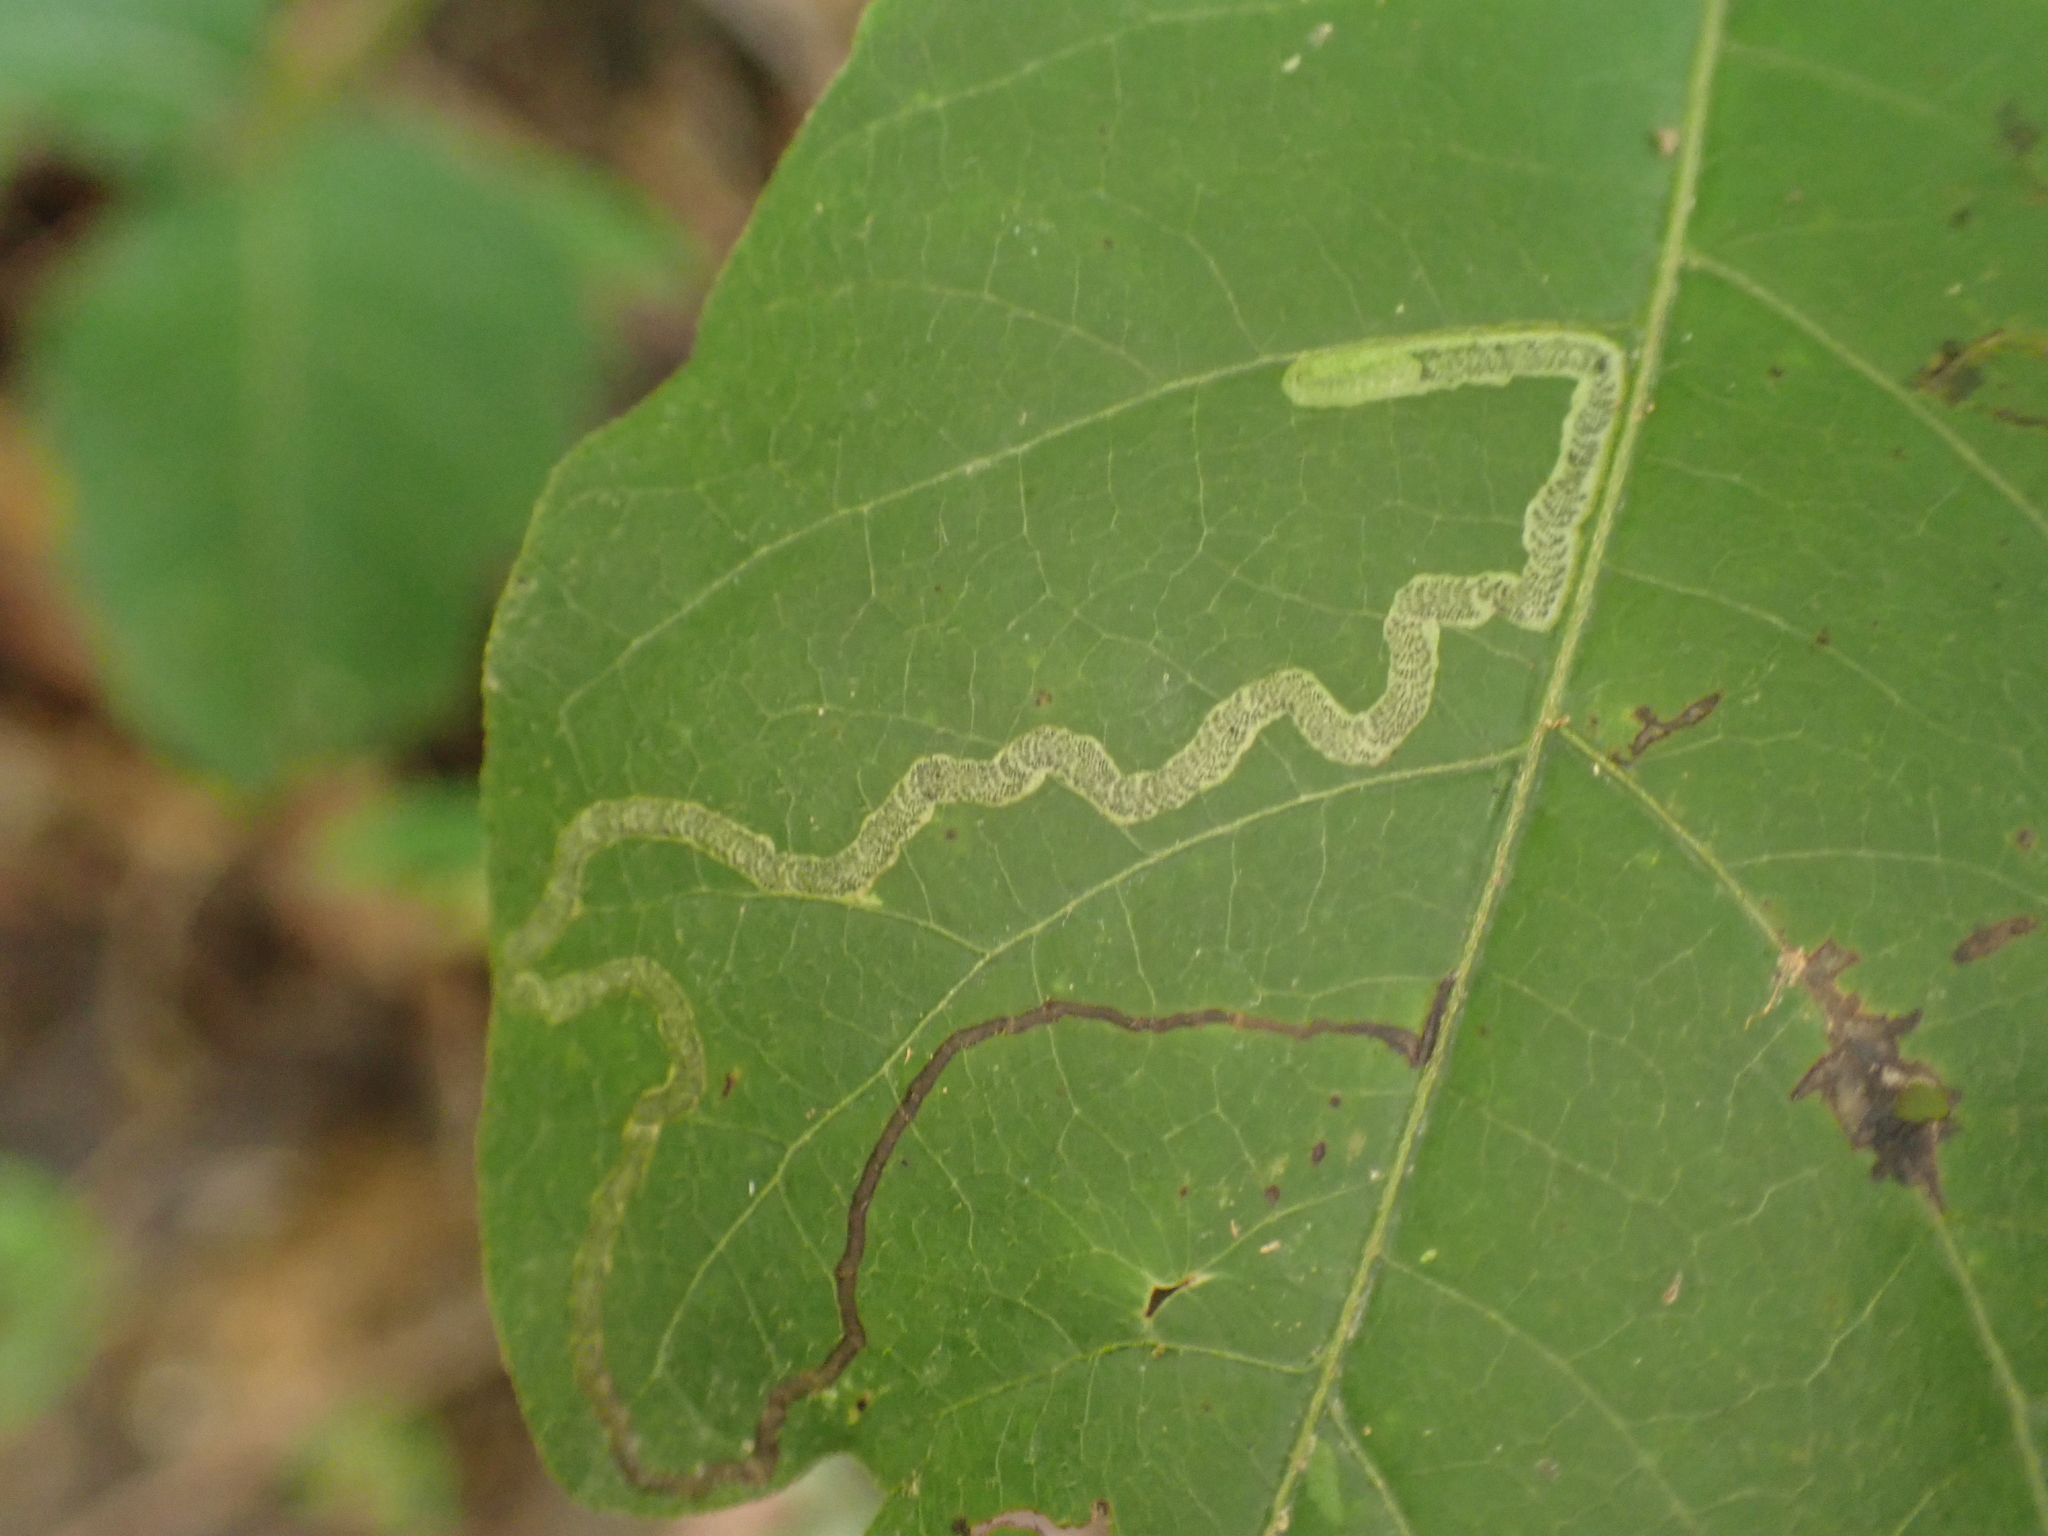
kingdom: Animalia
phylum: Arthropoda
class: Insecta
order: Lepidoptera
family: Nepticulidae
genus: Stigmella
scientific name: Stigmella rhoifoliella
